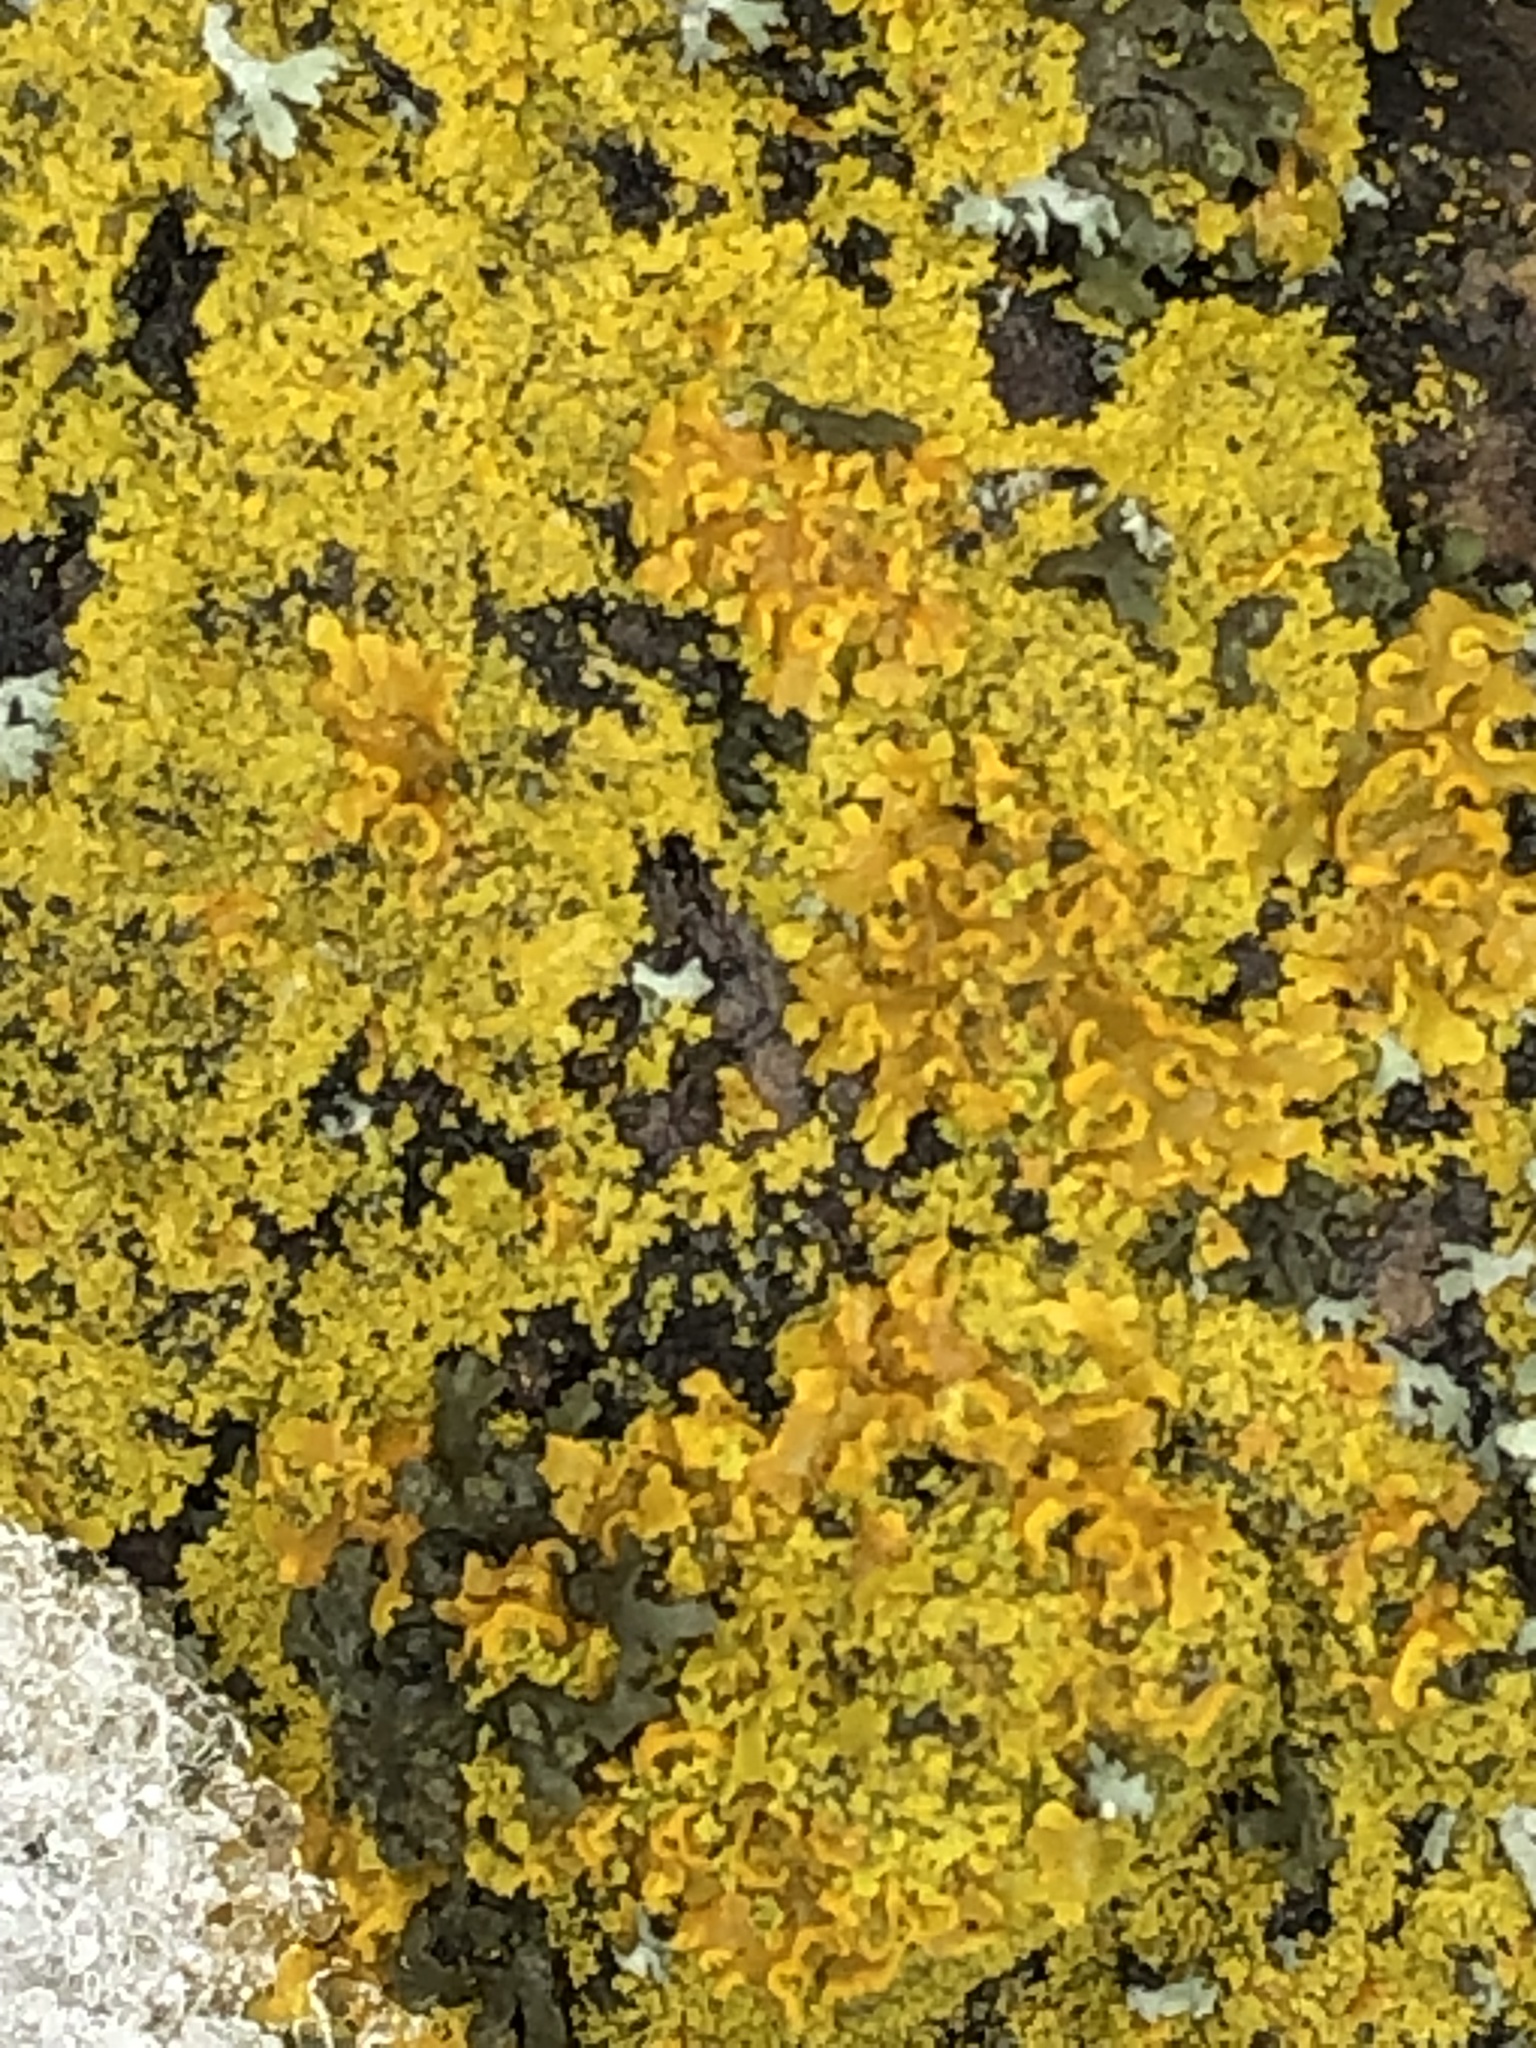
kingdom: Fungi
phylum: Ascomycota
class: Lecanoromycetes
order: Teloschistales
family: Teloschistaceae
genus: Xanthoria
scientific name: Xanthoria parietina
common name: Common orange lichen
